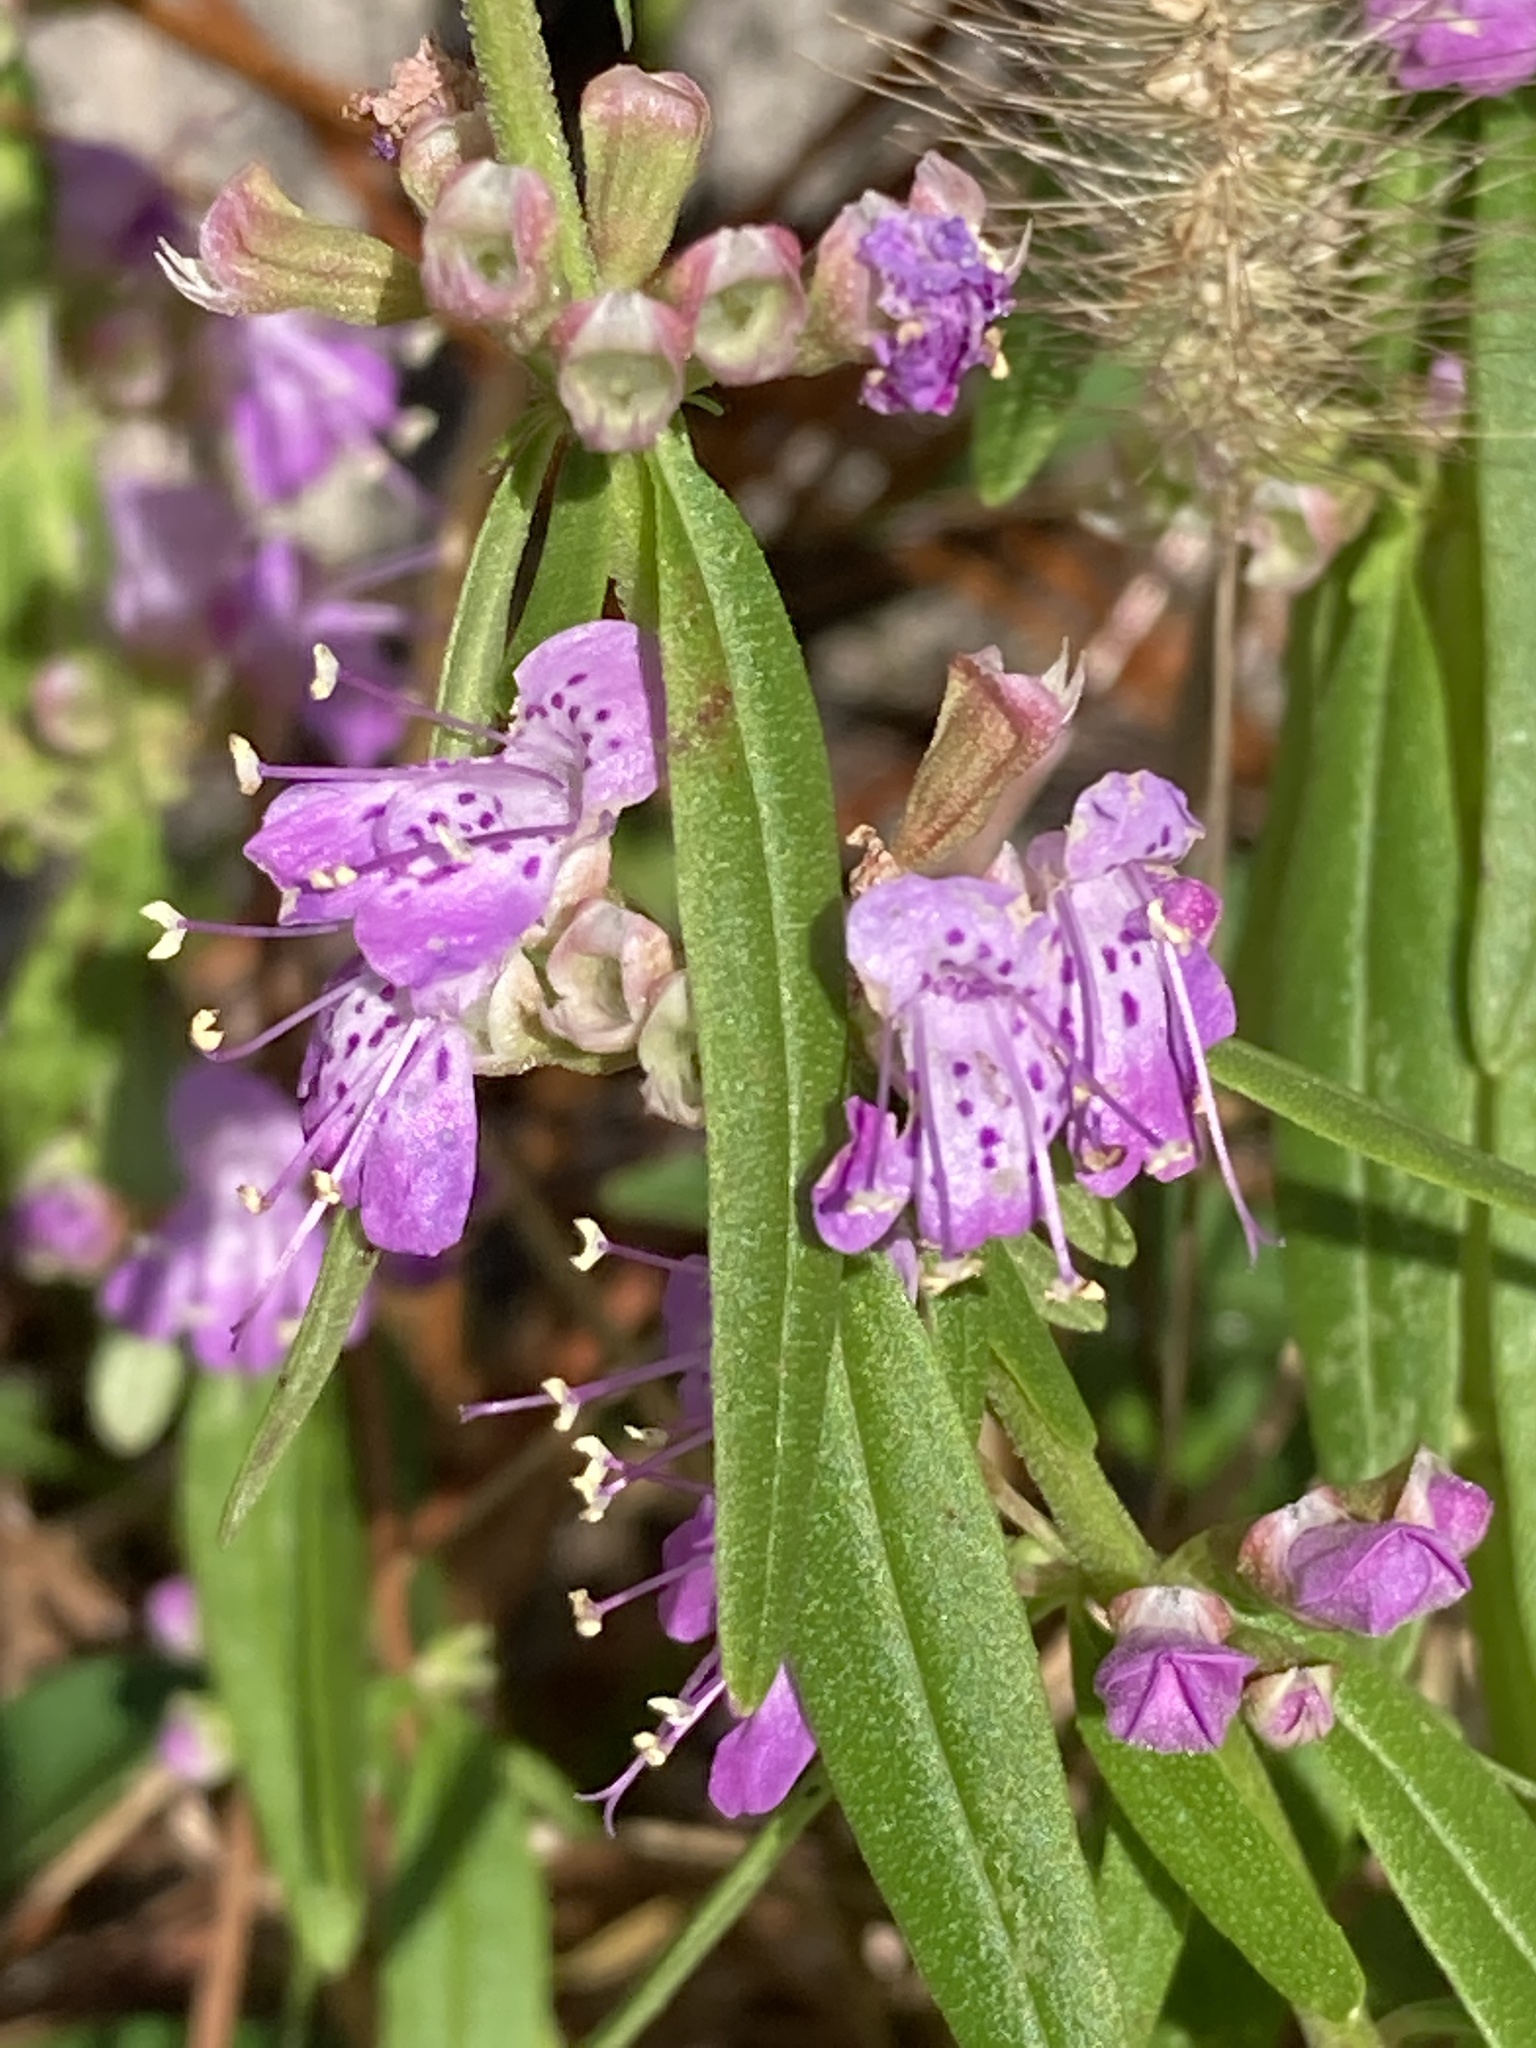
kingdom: Plantae
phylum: Tracheophyta
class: Magnoliopsida
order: Lamiales
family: Lamiaceae
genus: Dicerandra
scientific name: Dicerandra densiflora
